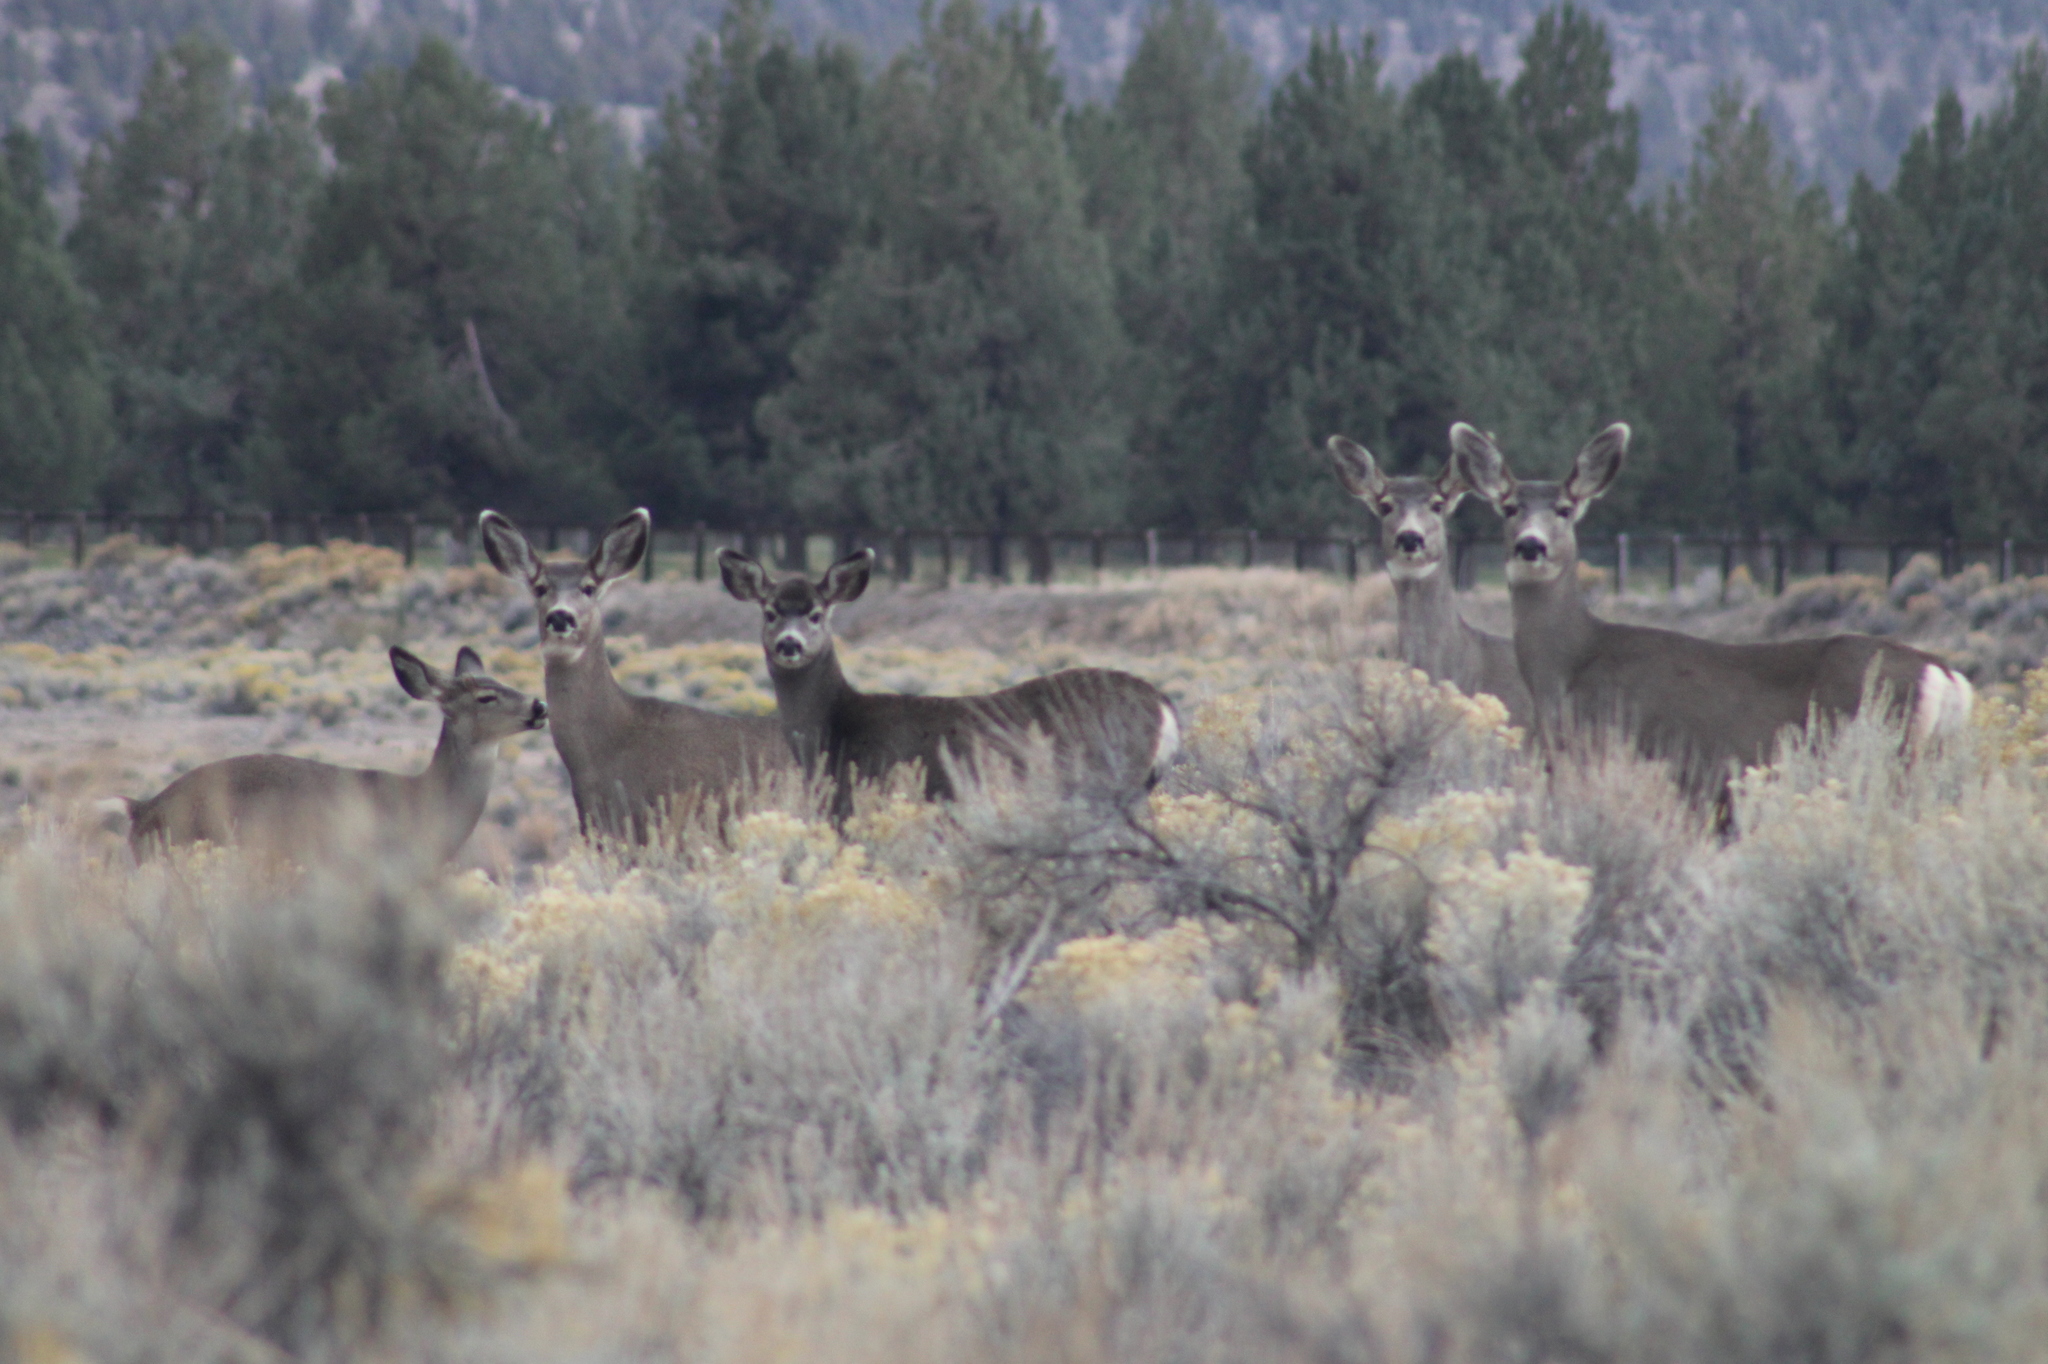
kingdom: Animalia
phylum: Chordata
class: Mammalia
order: Artiodactyla
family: Cervidae
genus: Odocoileus
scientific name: Odocoileus hemionus
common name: Mule deer
